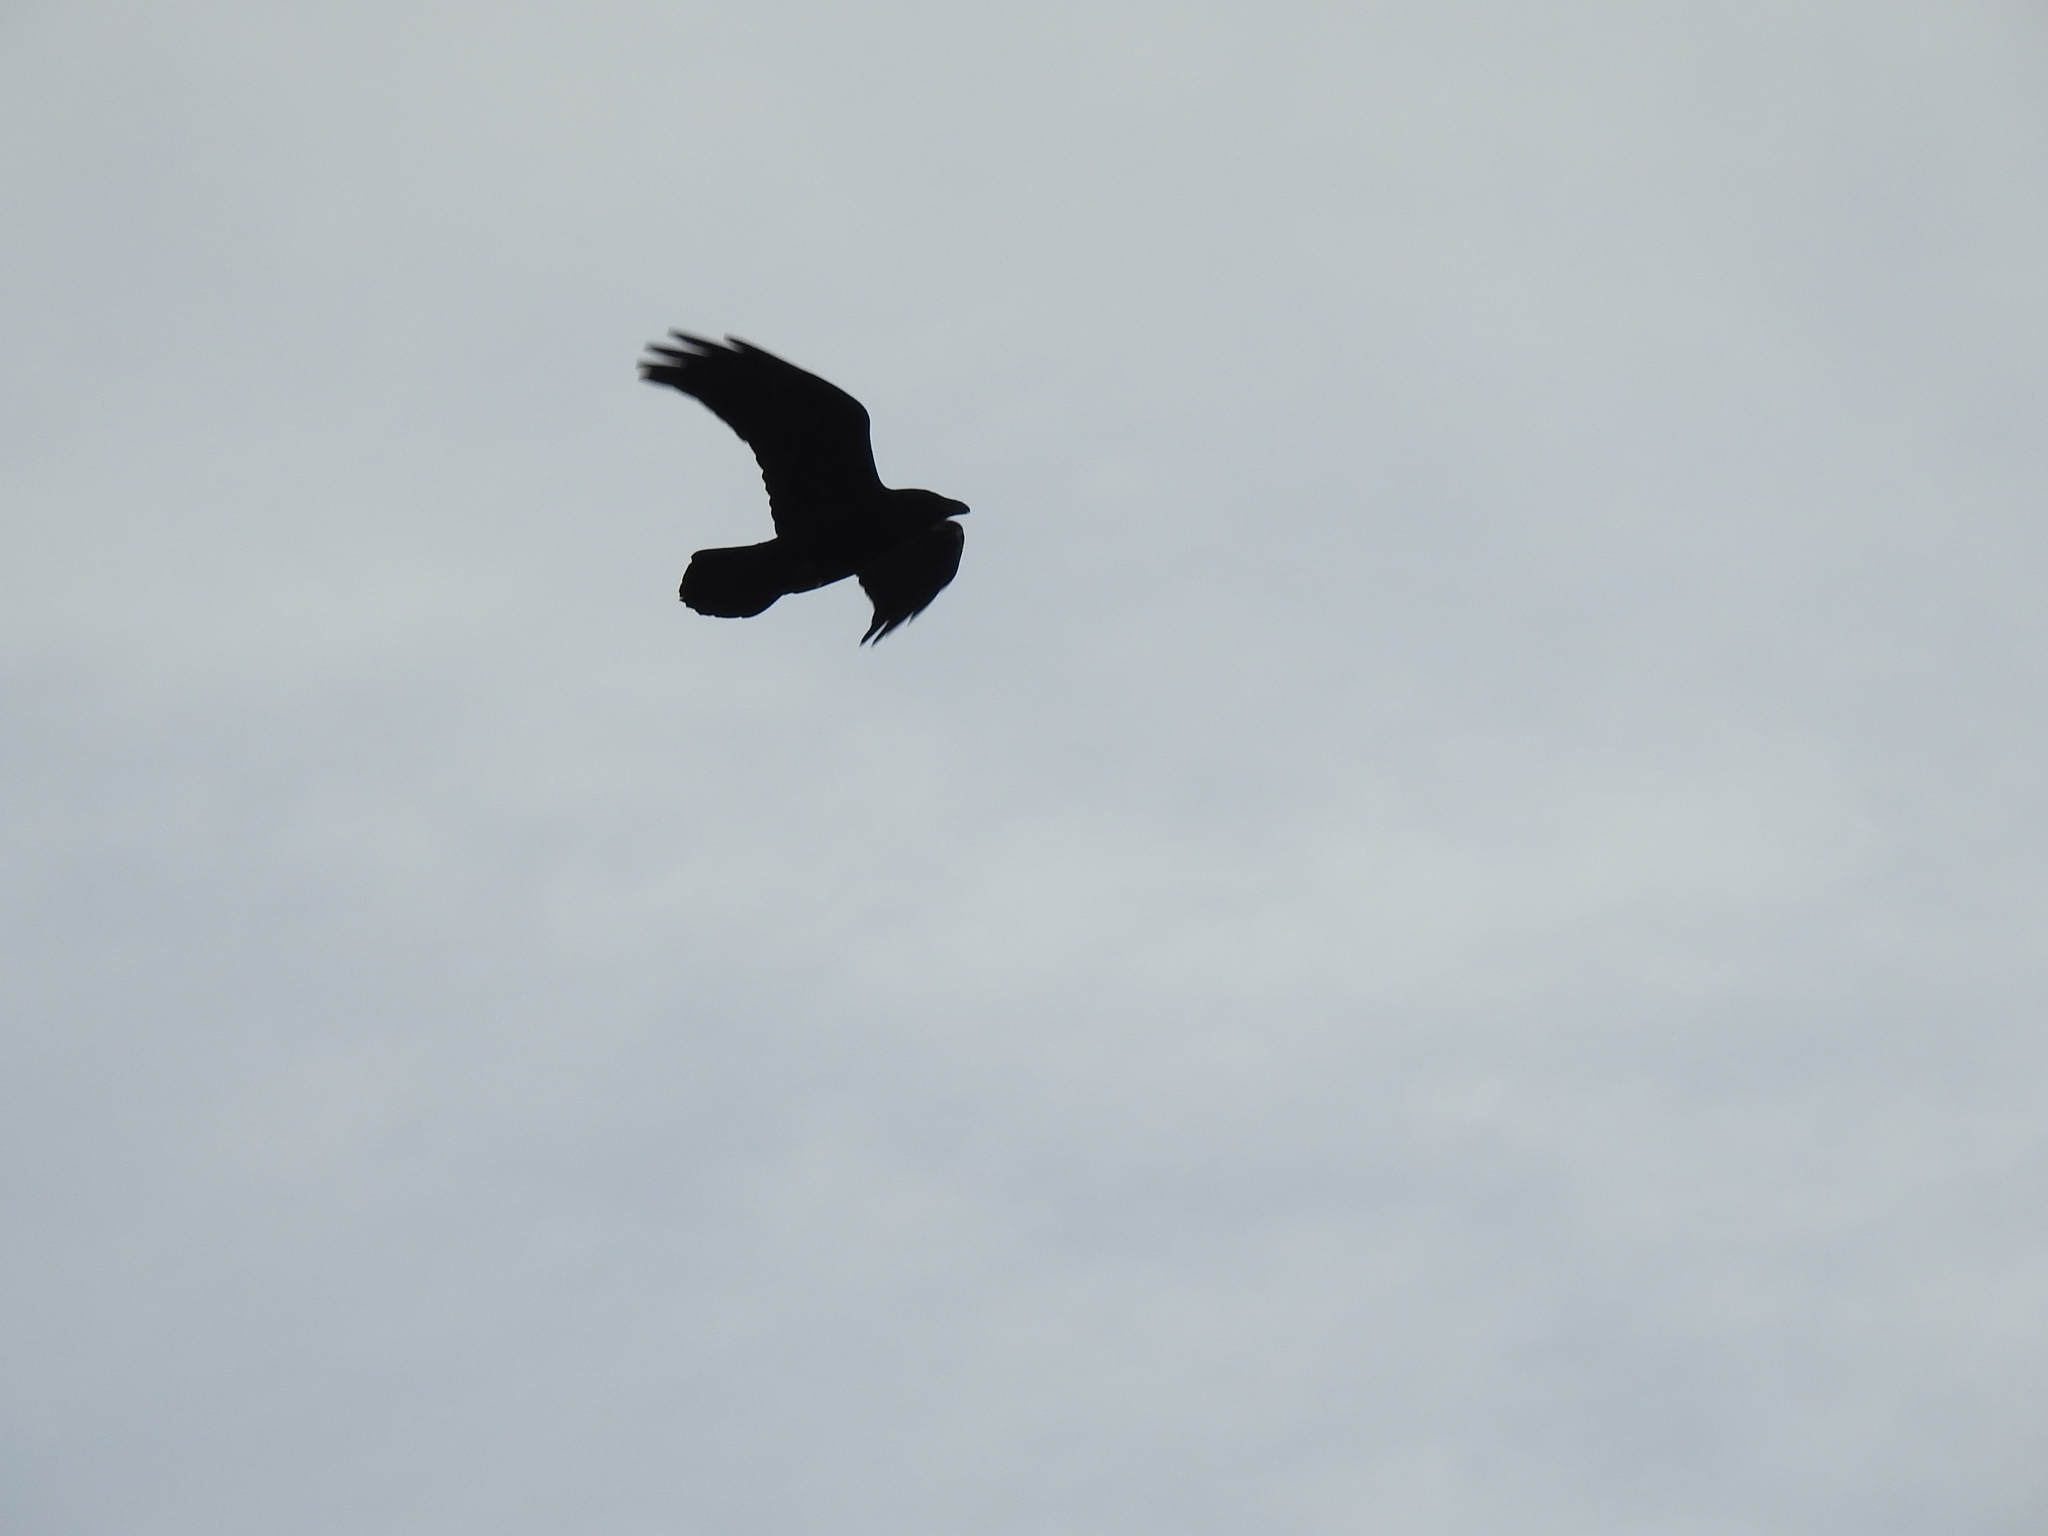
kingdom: Animalia
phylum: Chordata
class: Aves
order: Passeriformes
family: Corvidae
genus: Corvus
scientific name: Corvus corax
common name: Common raven
